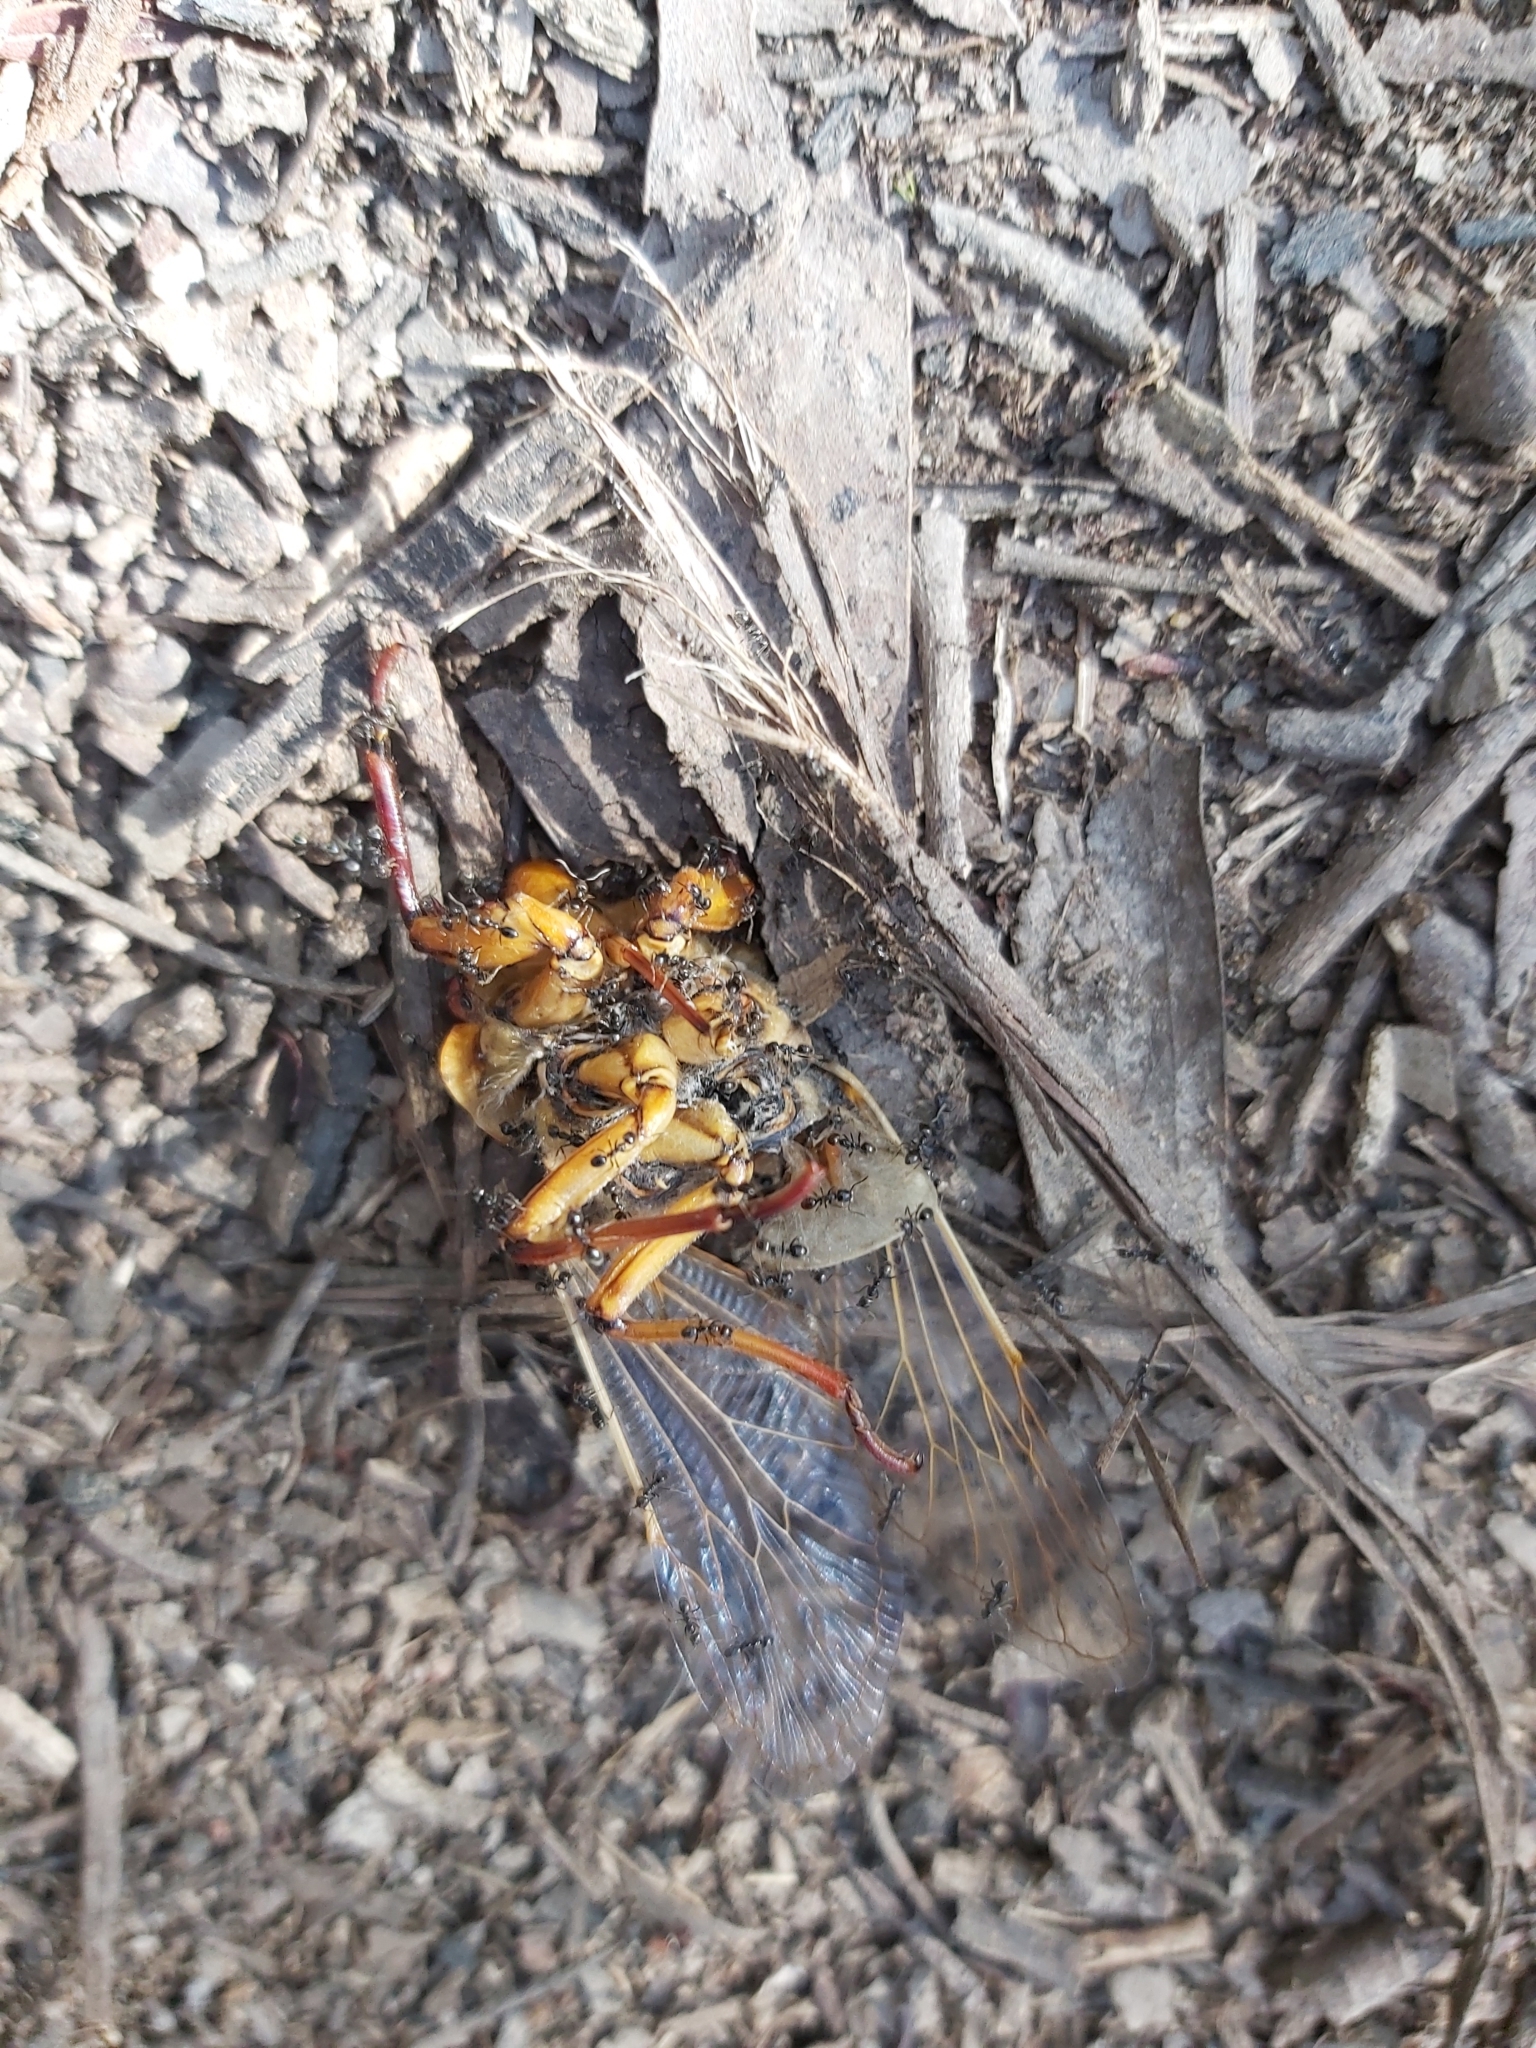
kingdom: Animalia
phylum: Arthropoda
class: Insecta
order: Hemiptera
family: Cicadidae
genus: Cyclochila
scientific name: Cyclochila australasiae
